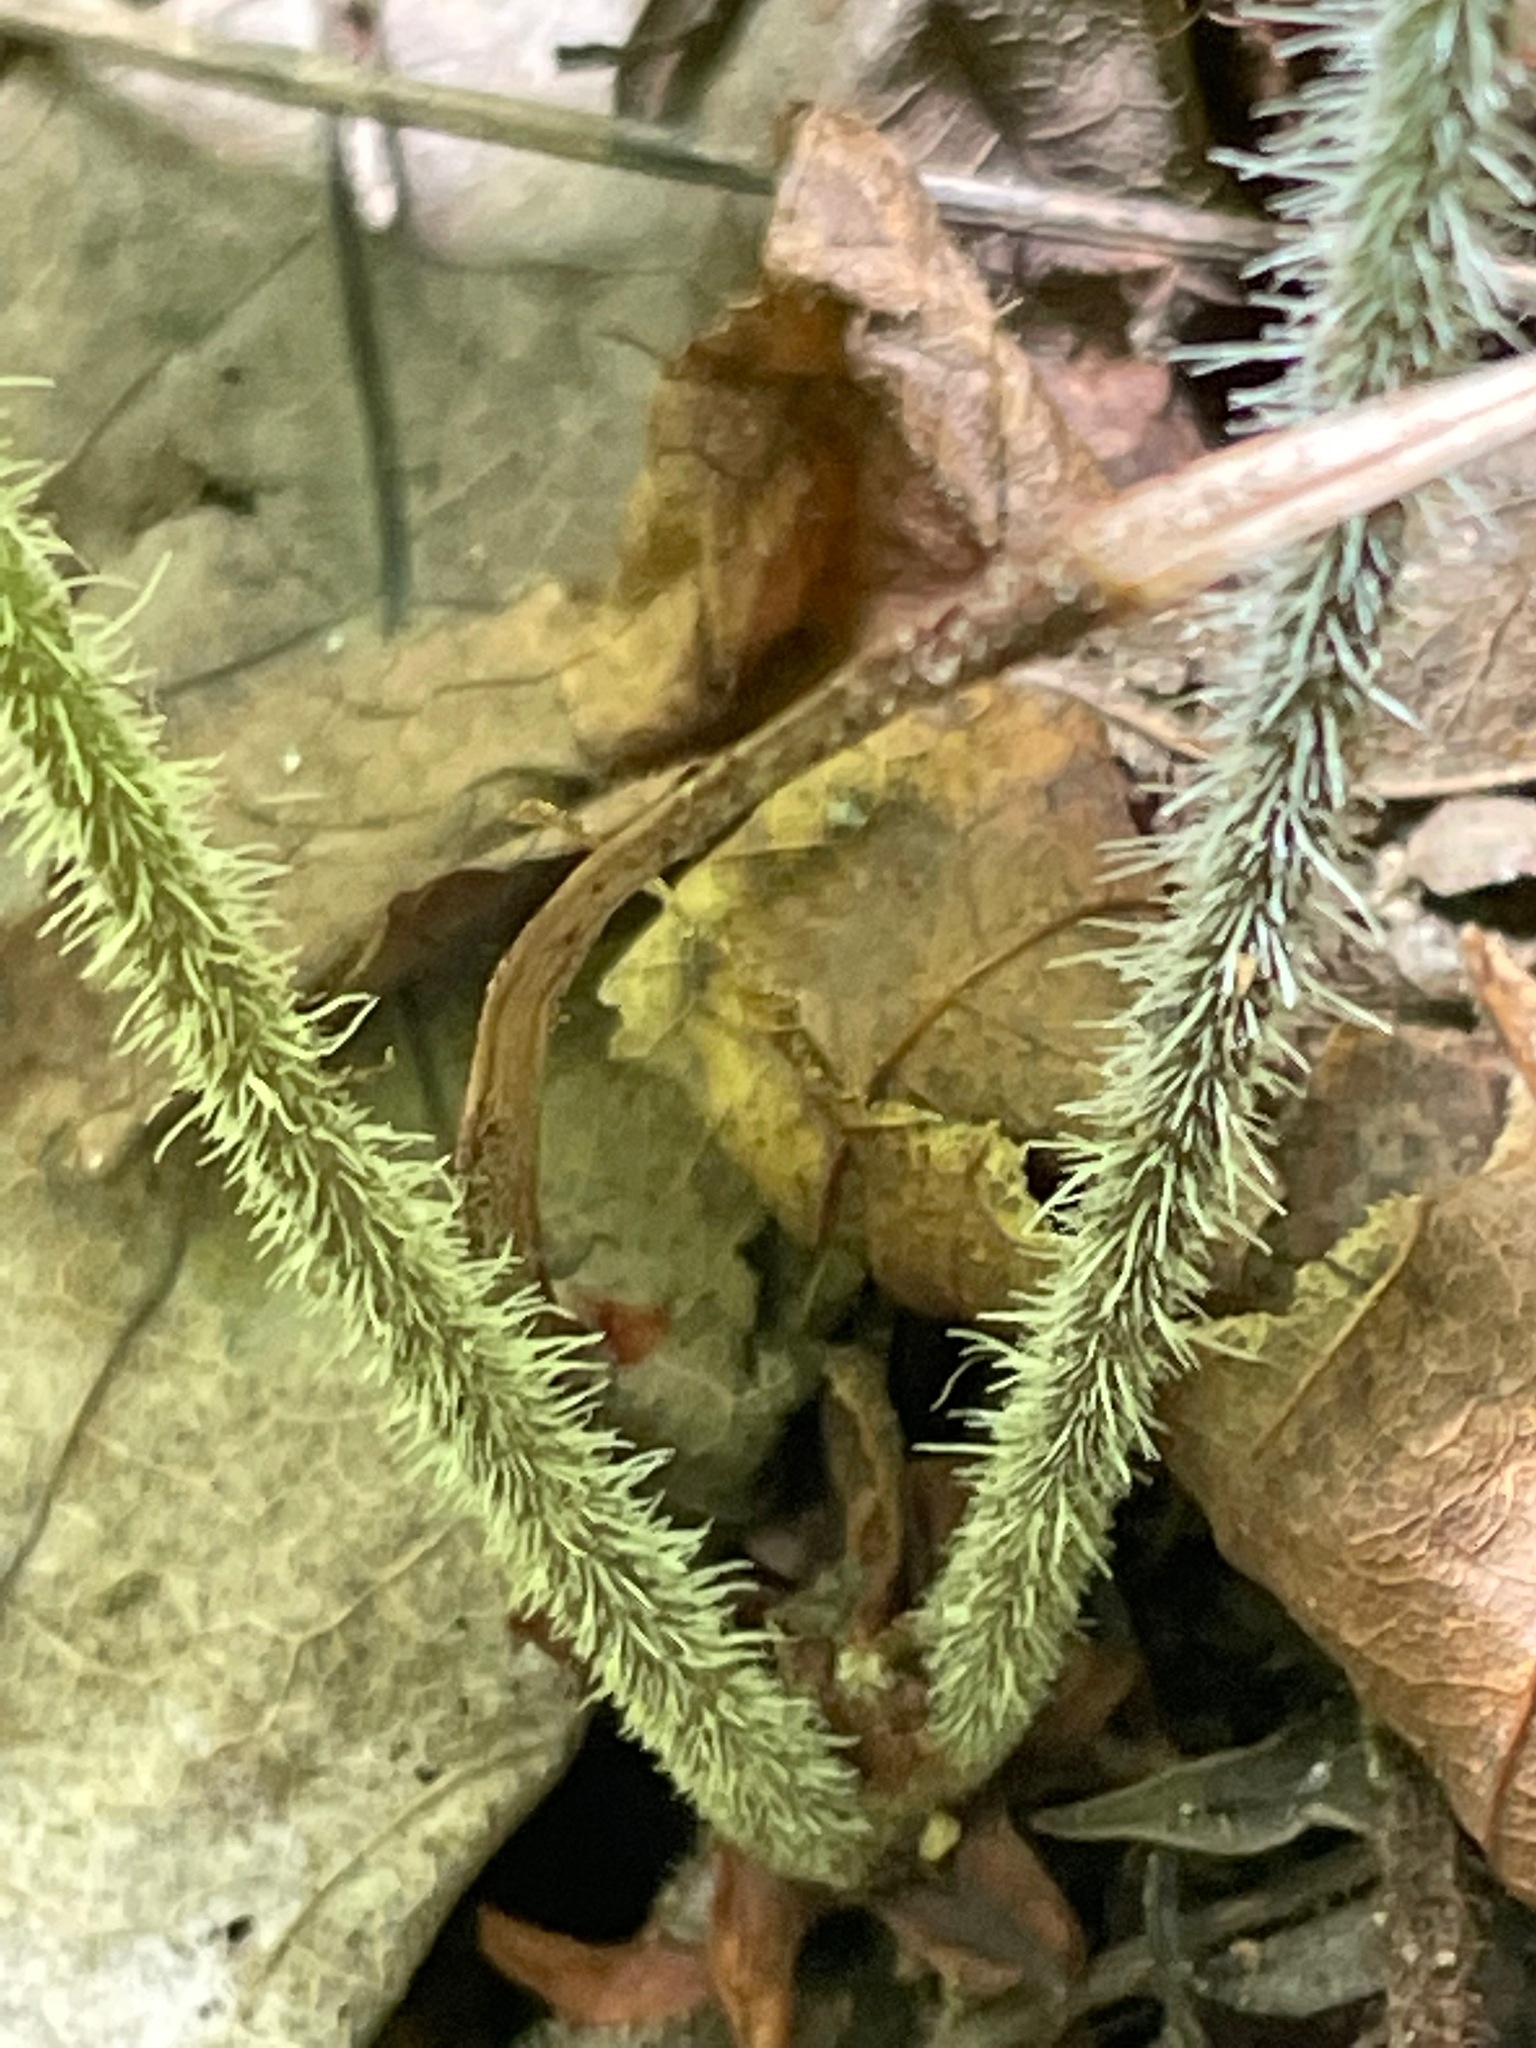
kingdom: Plantae
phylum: Tracheophyta
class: Magnoliopsida
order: Saxifragales
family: Saxifragaceae
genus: Tiarella
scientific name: Tiarella stolonifera
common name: Stoloniferous foamflower
